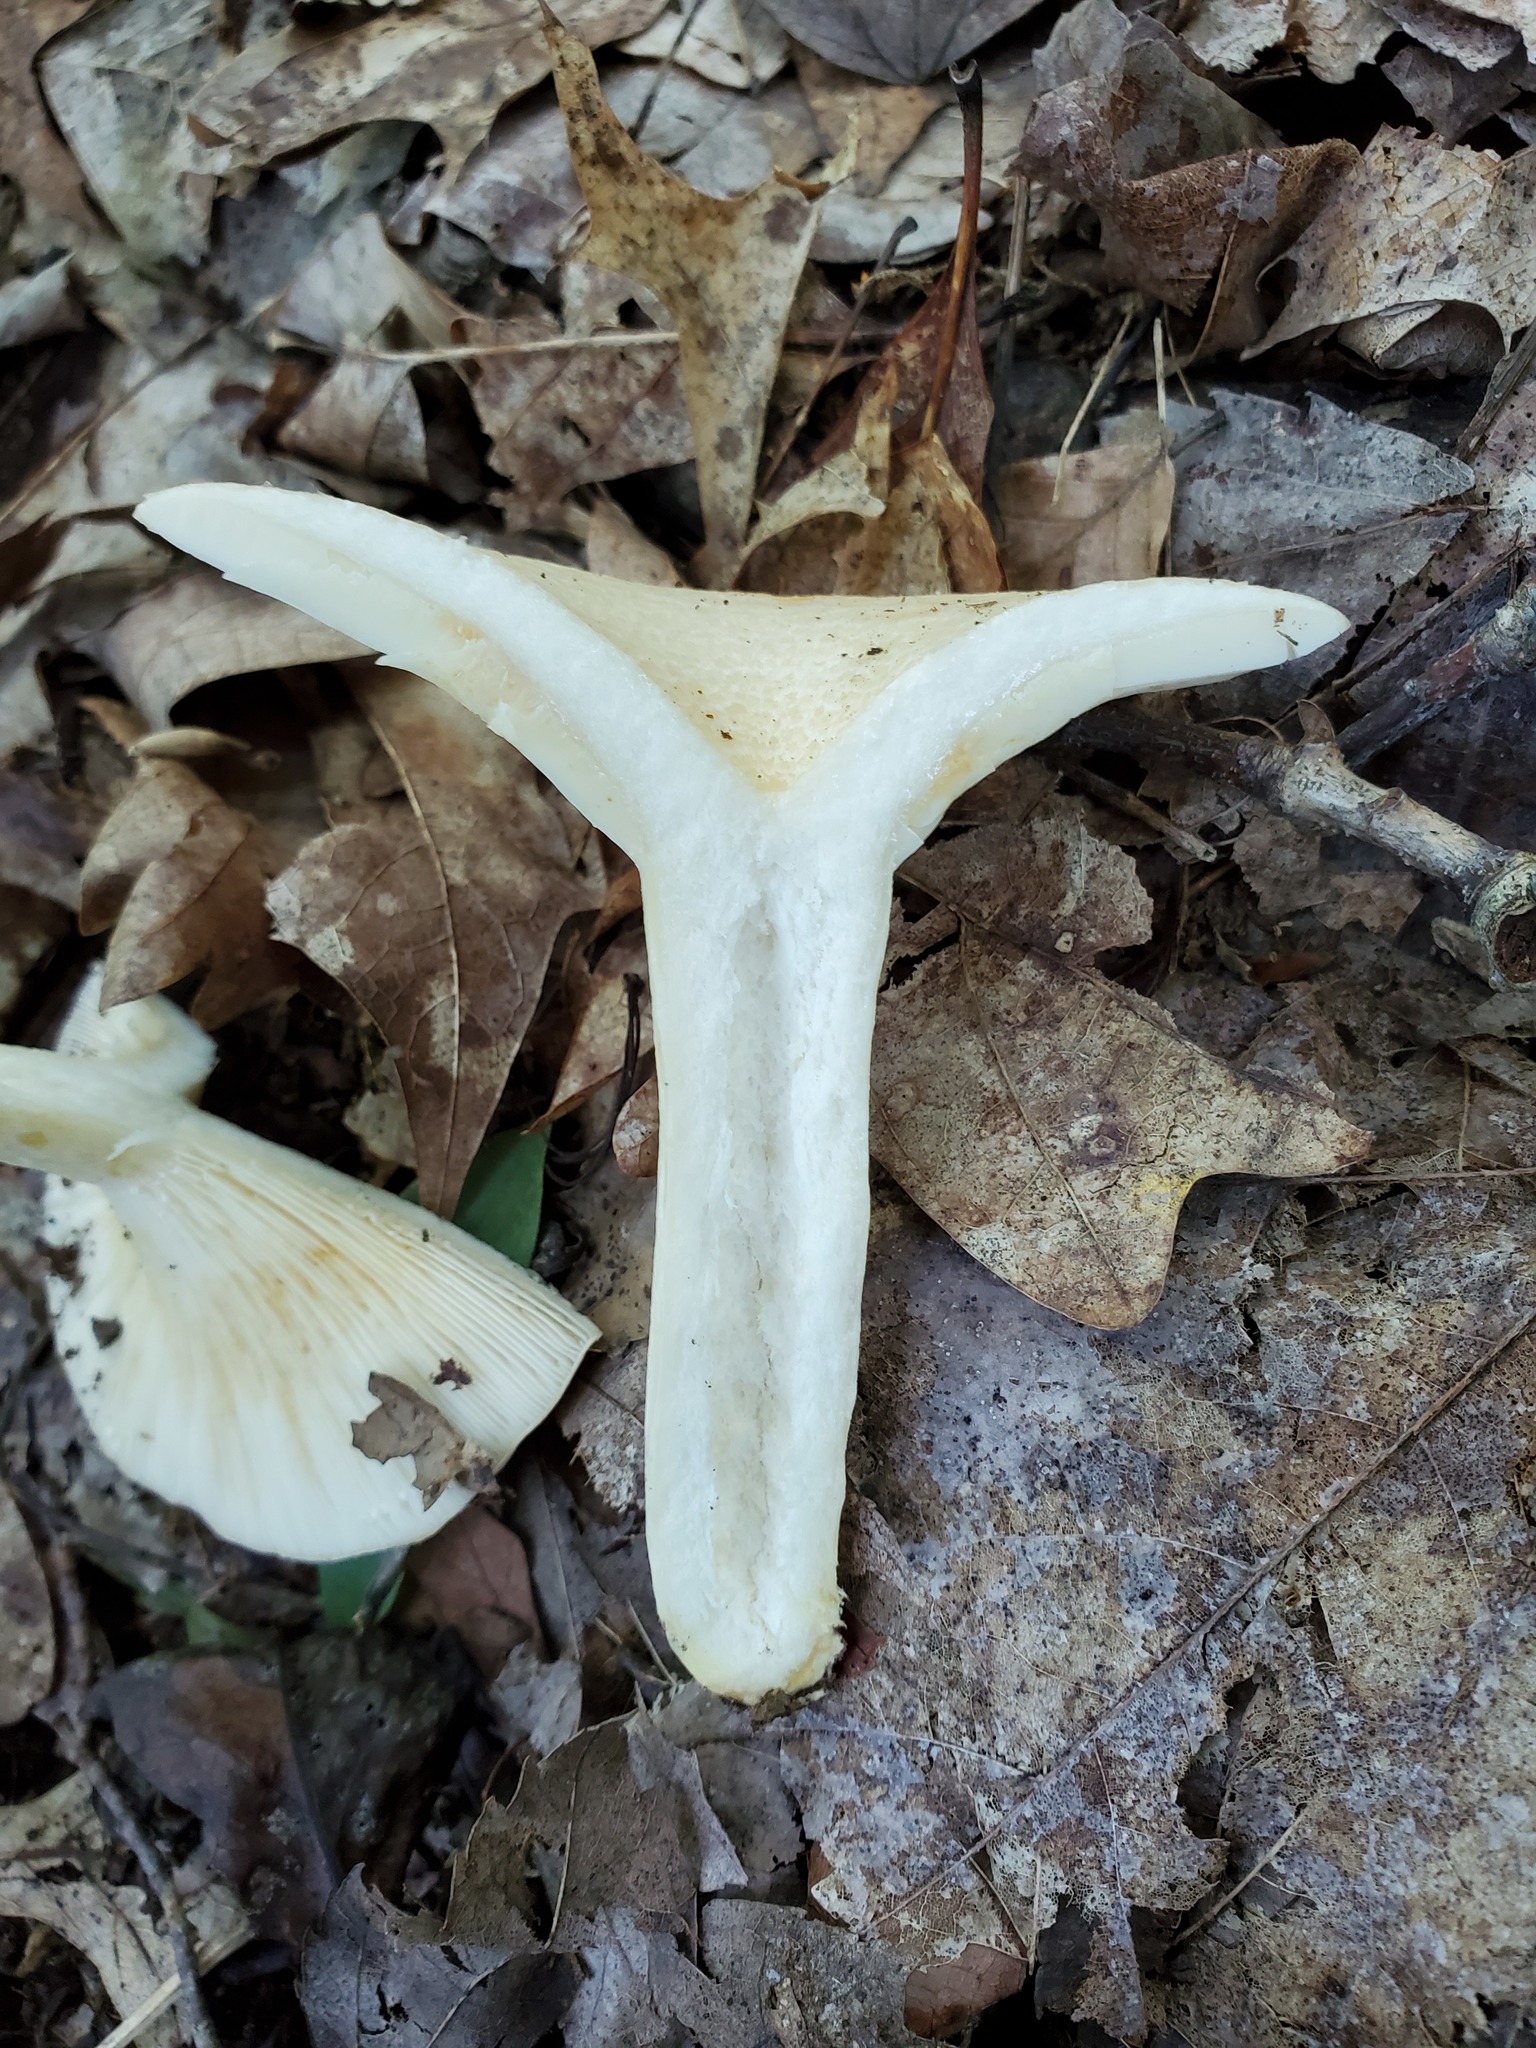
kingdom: Fungi
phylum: Basidiomycota
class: Agaricomycetes
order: Russulales
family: Russulaceae
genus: Lactarius
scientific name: Lactarius maculatipes
